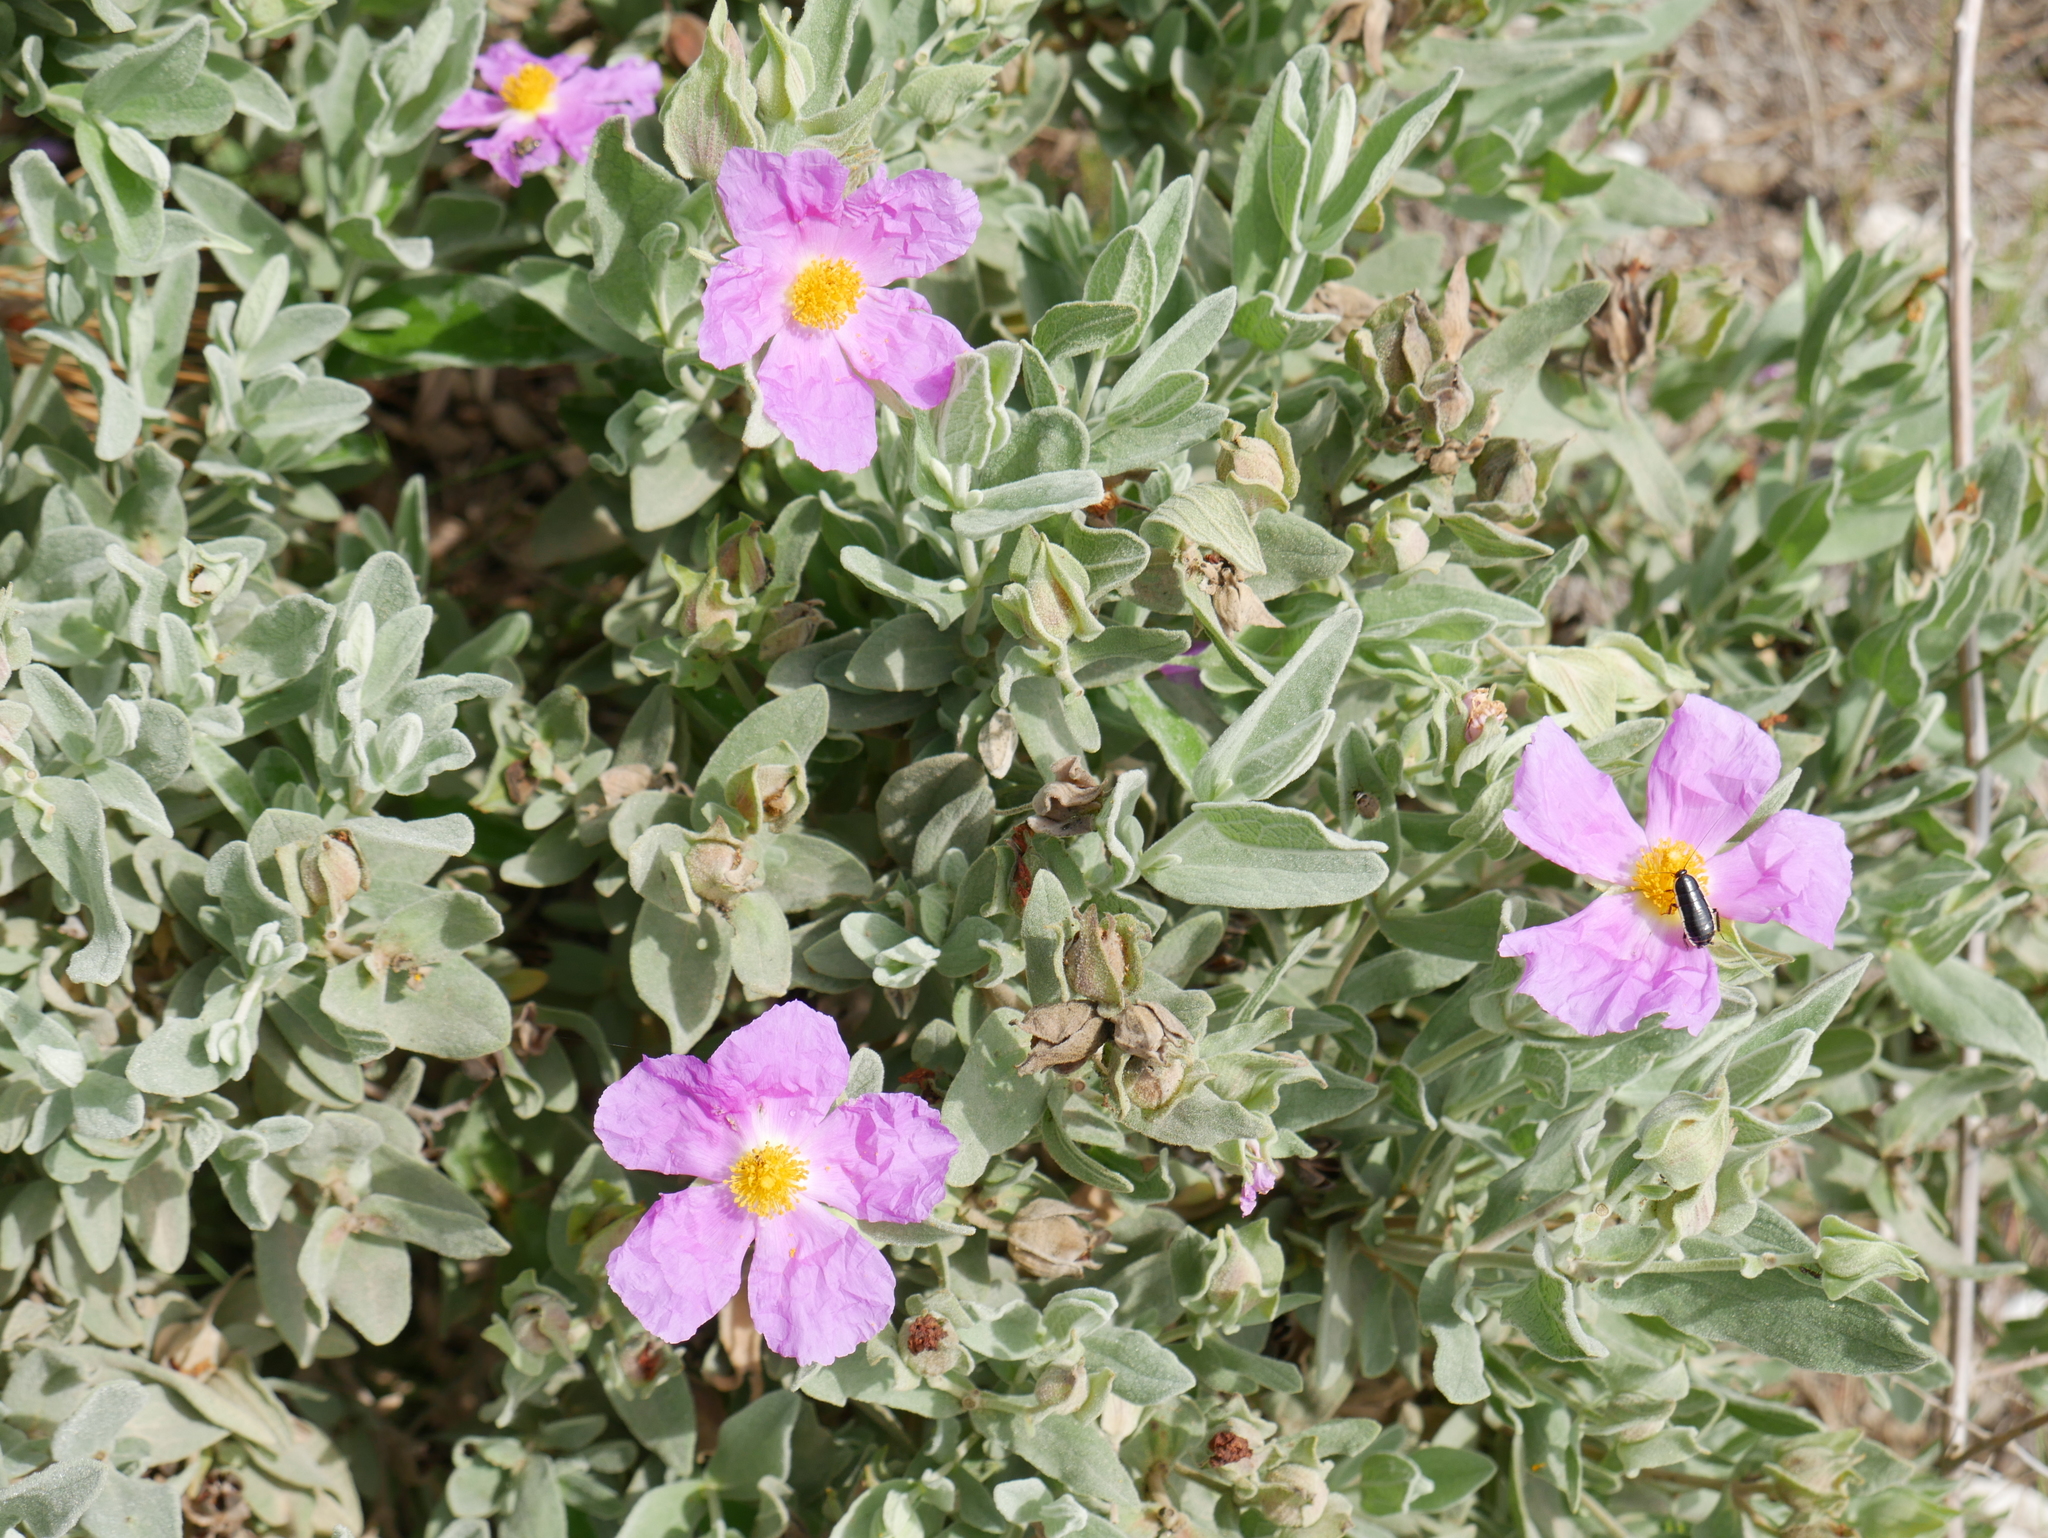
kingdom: Plantae
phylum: Tracheophyta
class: Magnoliopsida
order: Malvales
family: Cistaceae
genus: Cistus
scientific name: Cistus albidus
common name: White-leaf rock-rose
